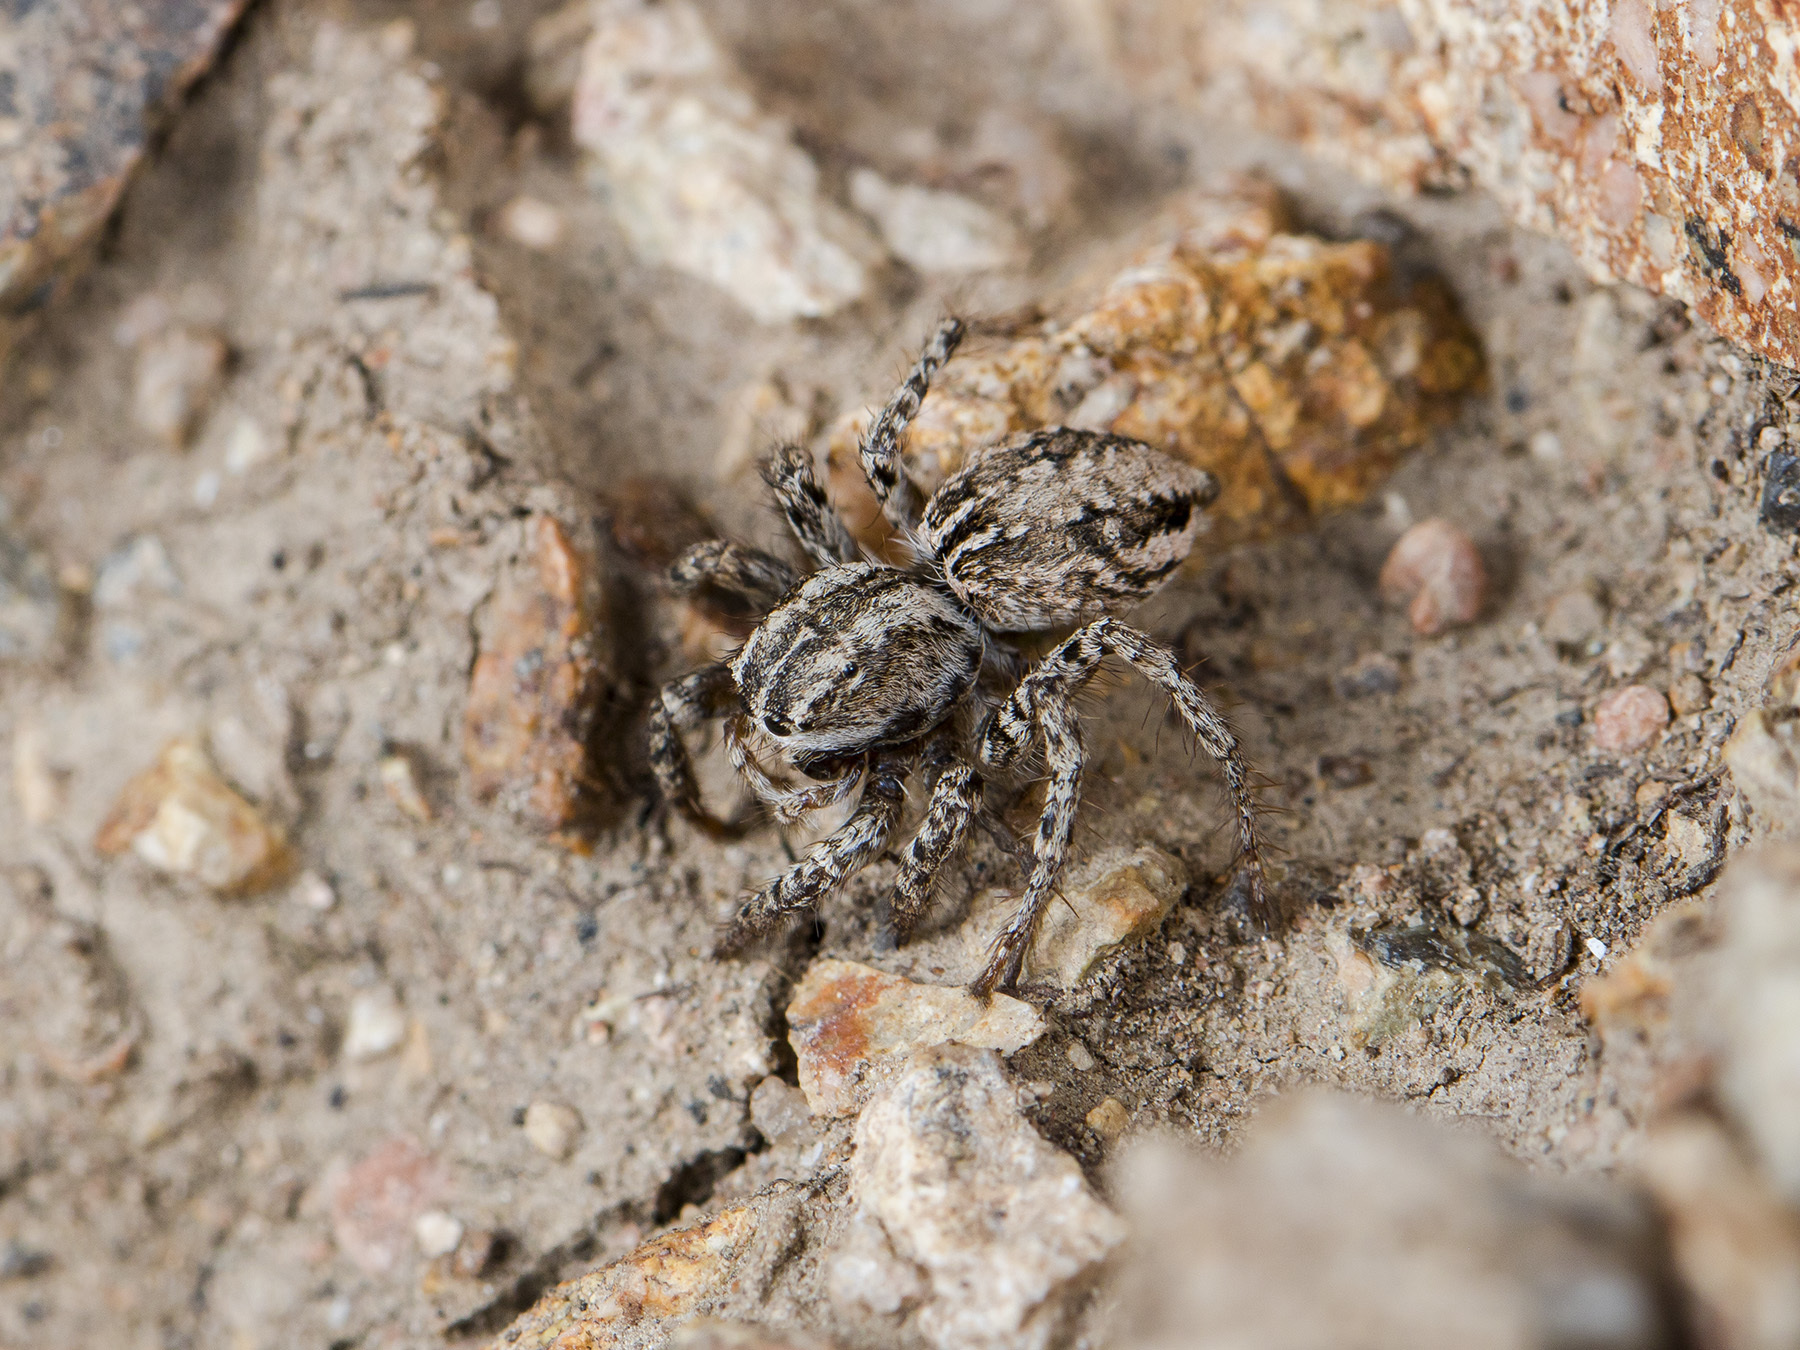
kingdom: Animalia
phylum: Arthropoda
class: Arachnida
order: Araneae
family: Salticidae
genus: Aelurillus
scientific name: Aelurillus m-nigrum
